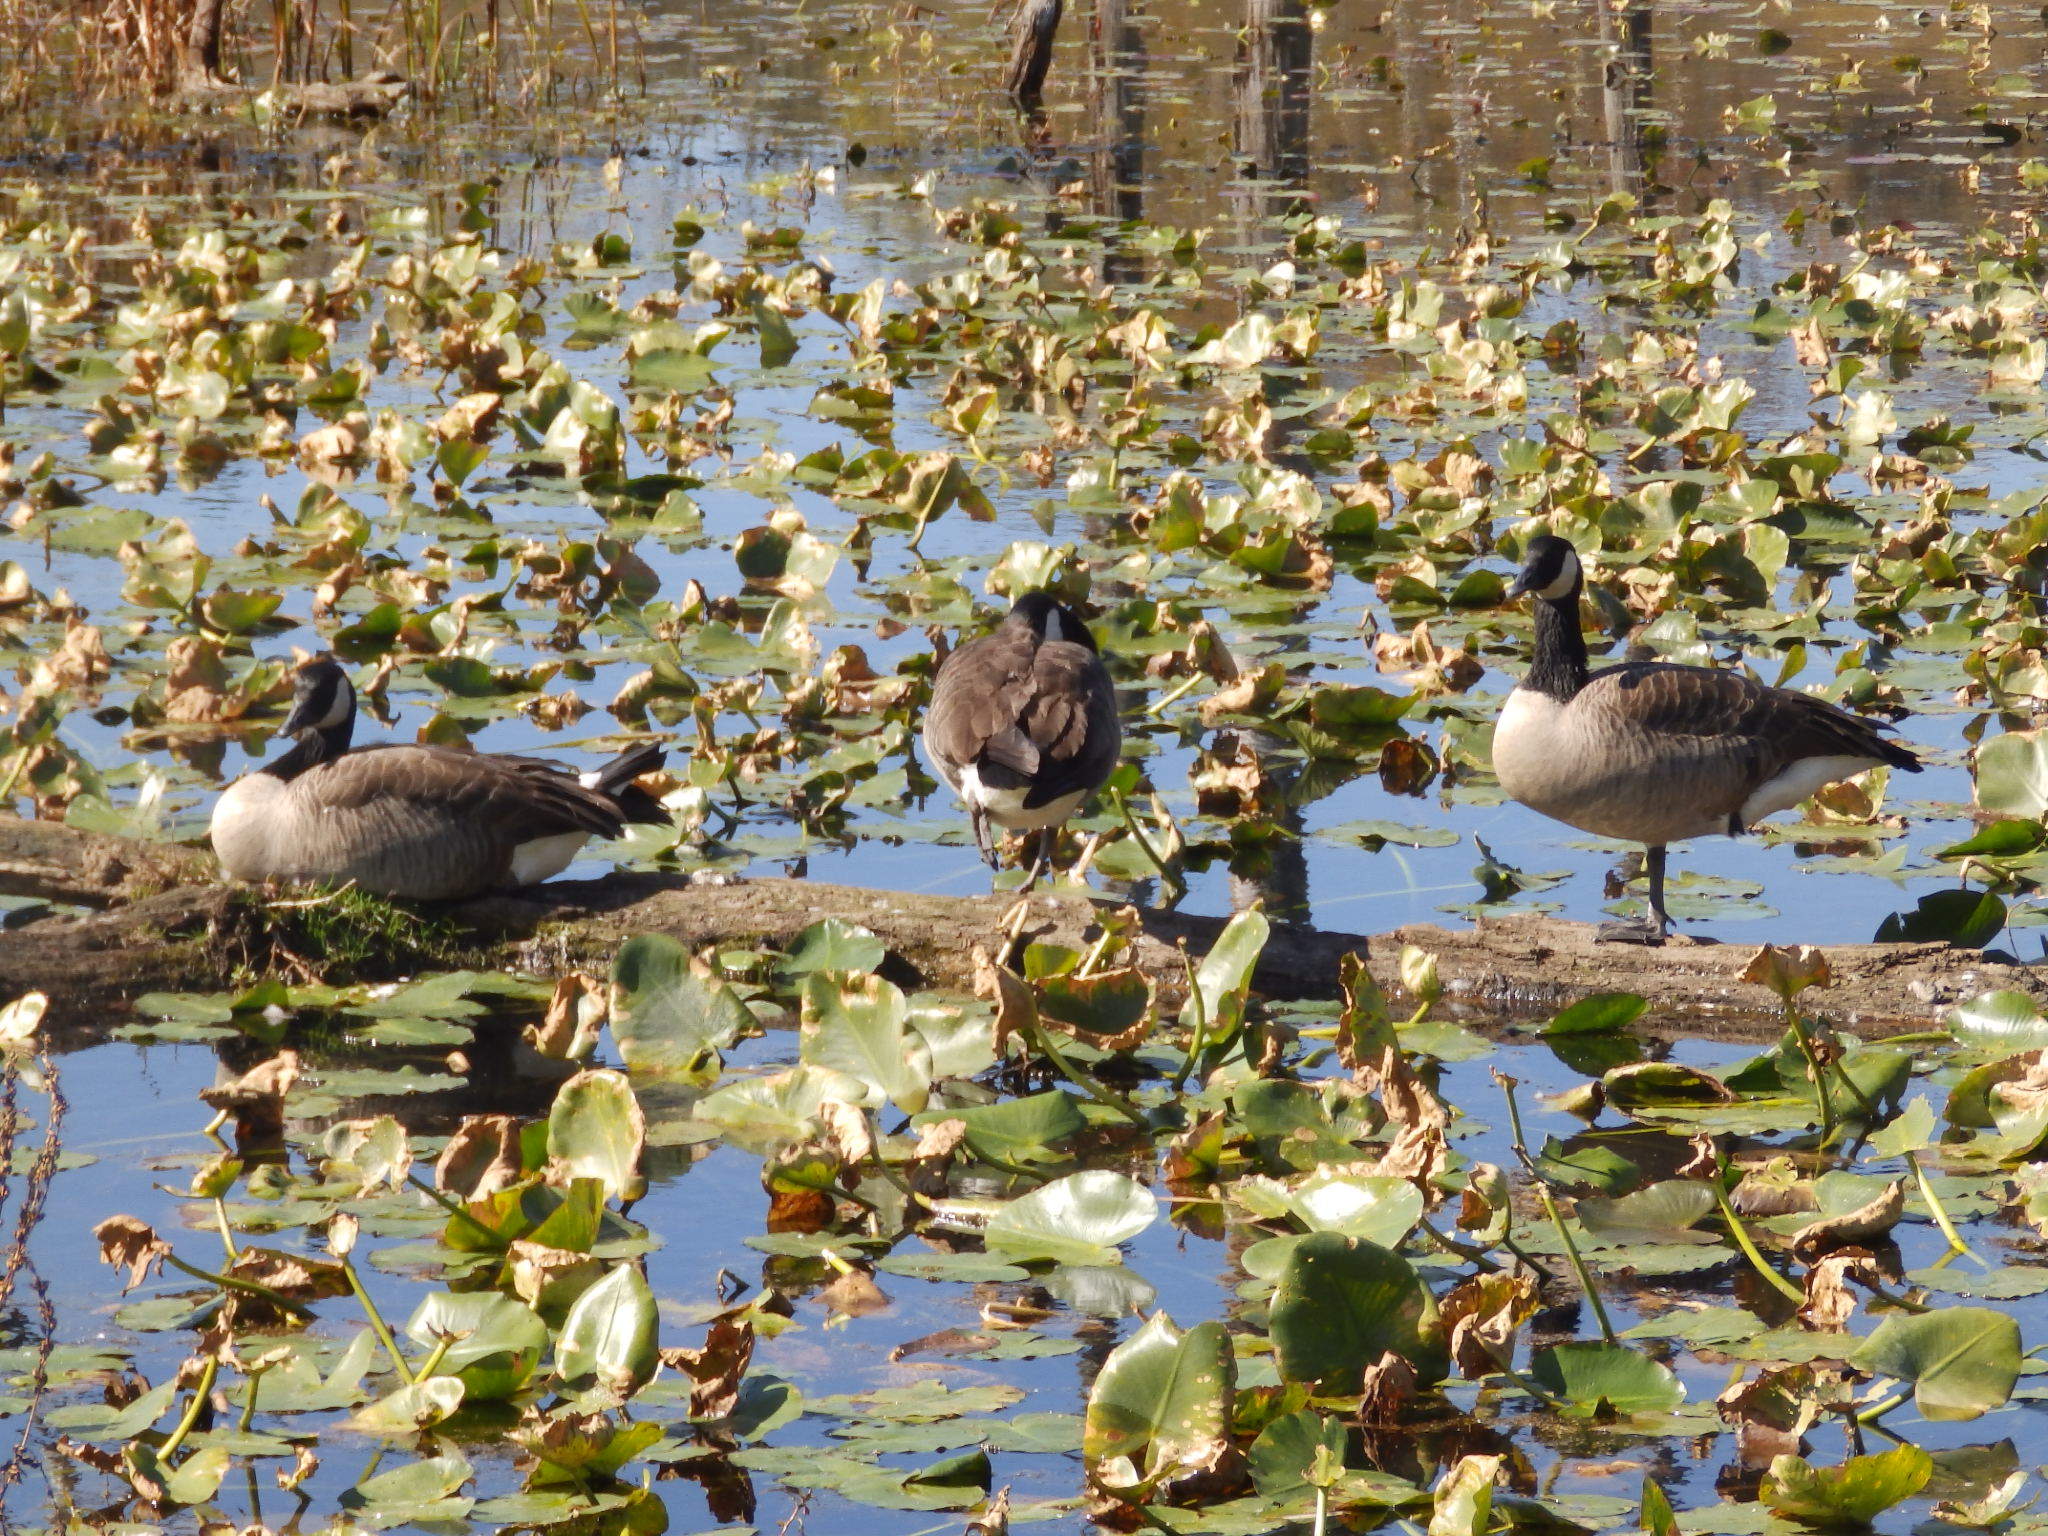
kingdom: Animalia
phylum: Chordata
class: Aves
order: Anseriformes
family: Anatidae
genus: Branta
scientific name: Branta canadensis
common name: Canada goose
